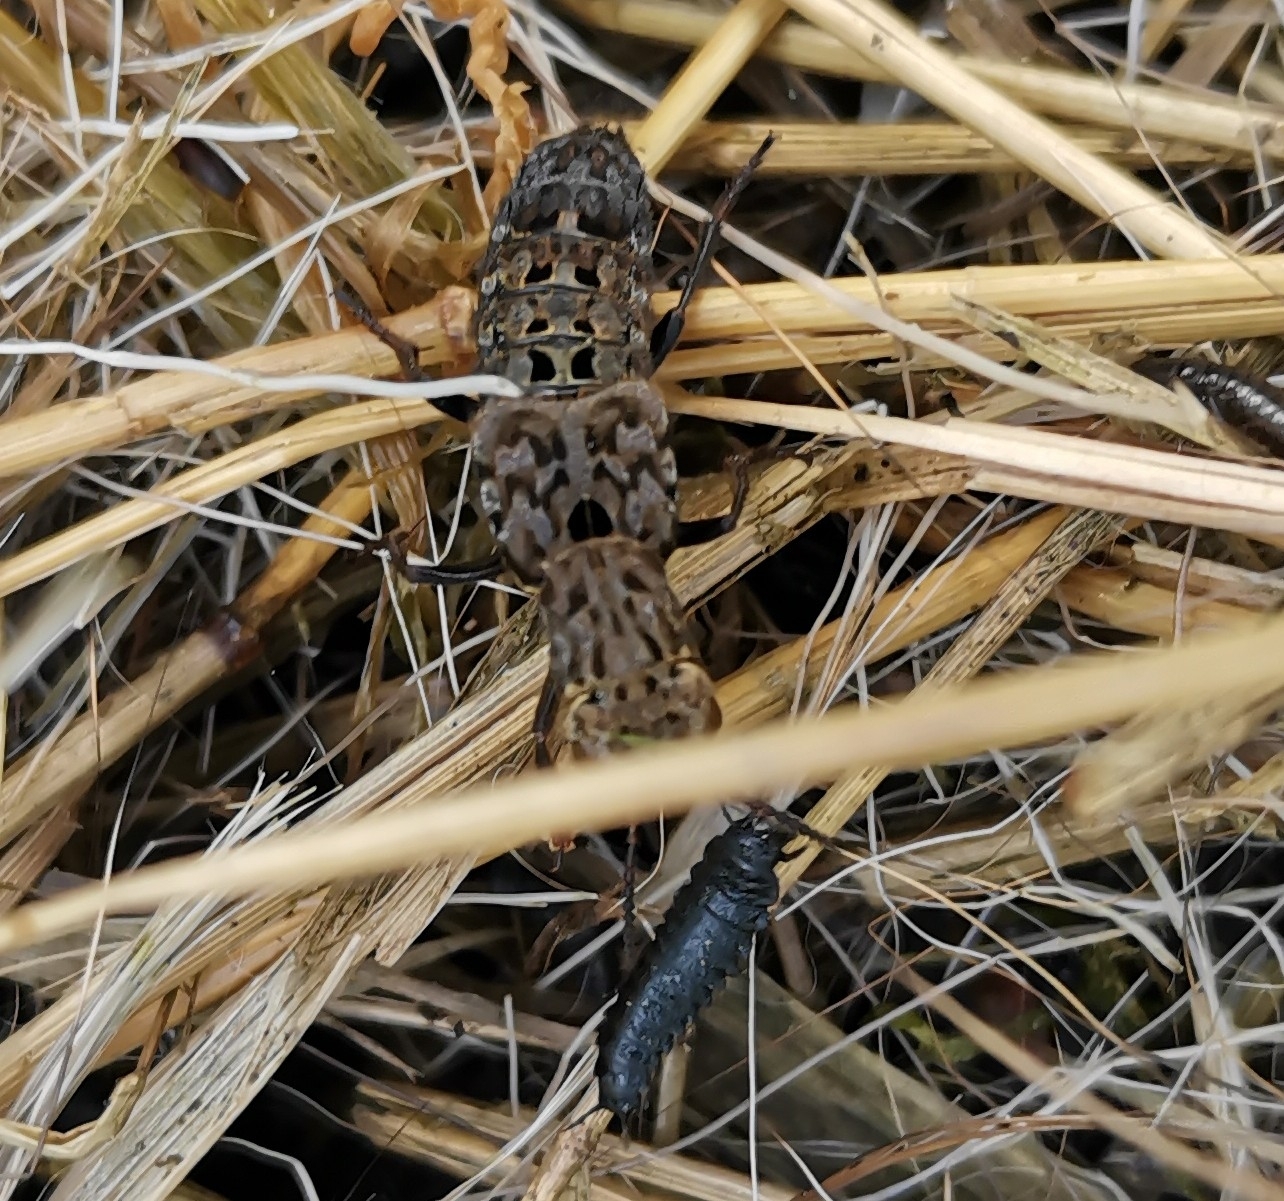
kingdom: Animalia
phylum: Arthropoda
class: Insecta
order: Coleoptera
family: Staphylinidae
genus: Ontholestes
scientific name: Ontholestes murinus
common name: Staph beetle
